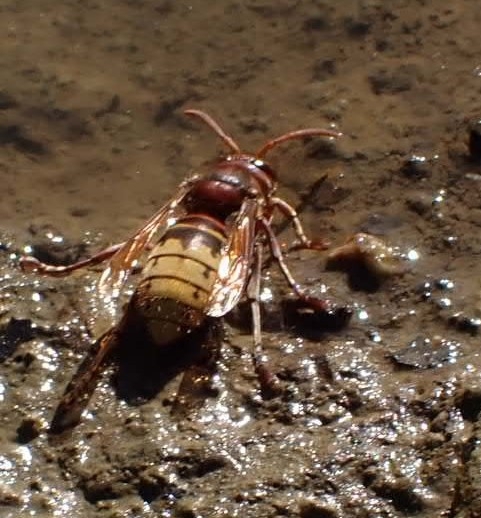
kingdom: Animalia
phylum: Arthropoda
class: Insecta
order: Hymenoptera
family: Vespidae
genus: Vespa
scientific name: Vespa crabro
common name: Hornet
